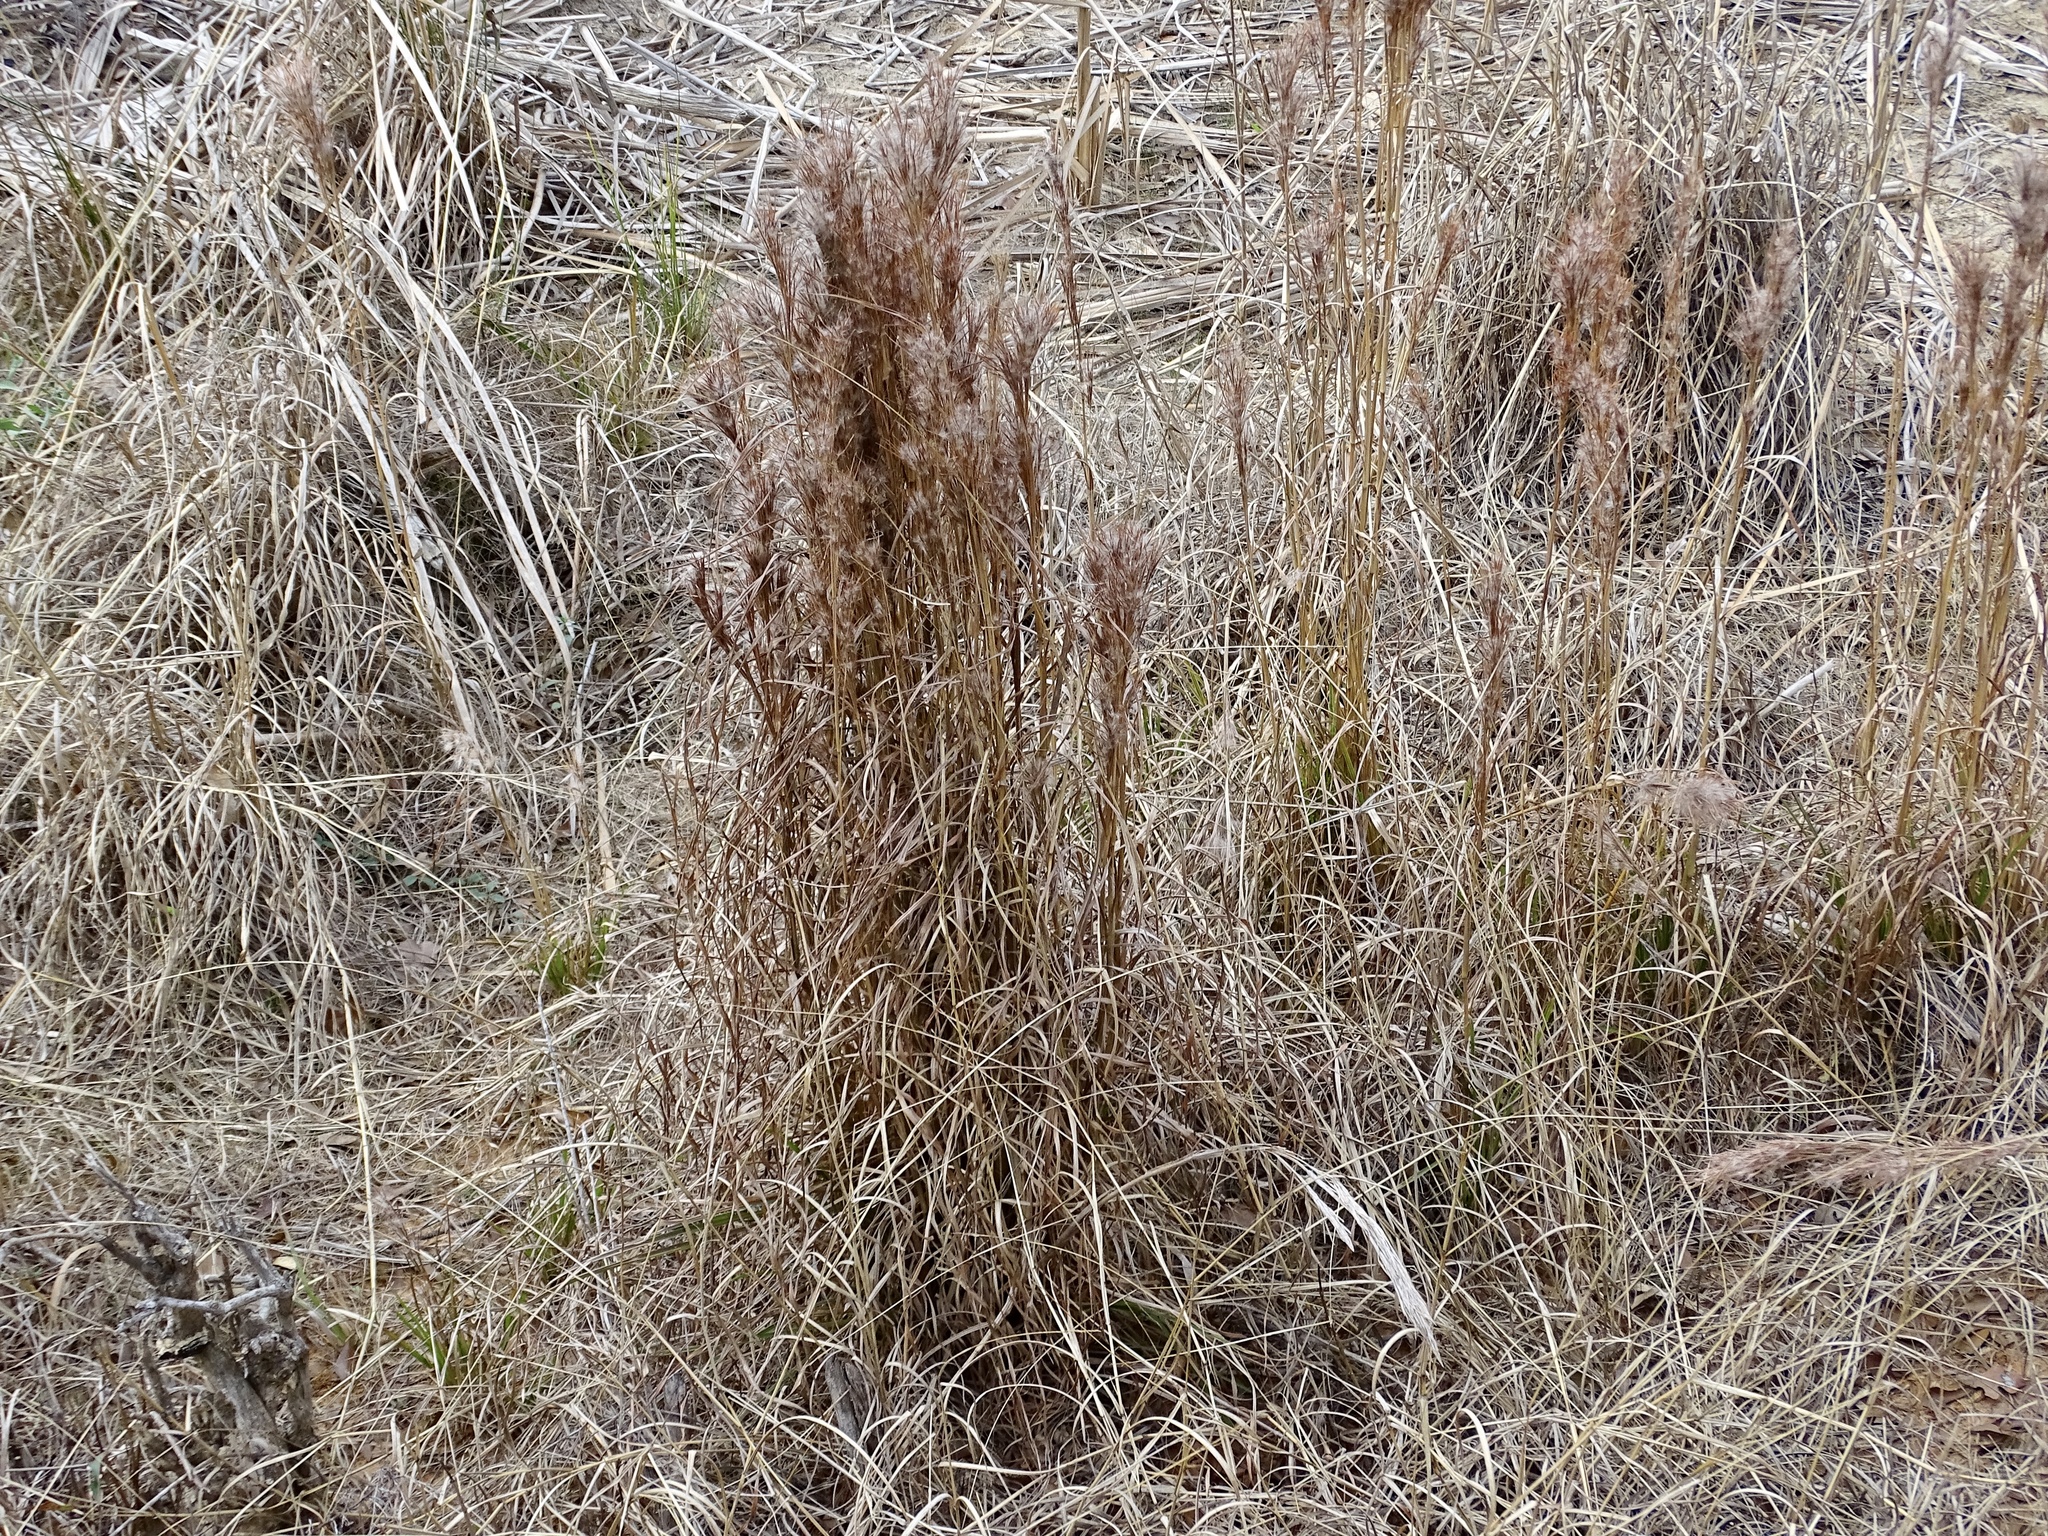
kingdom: Plantae
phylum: Tracheophyta
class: Liliopsida
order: Poales
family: Poaceae
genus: Andropogon
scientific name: Andropogon tenuispatheus
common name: Bushy bluestem
